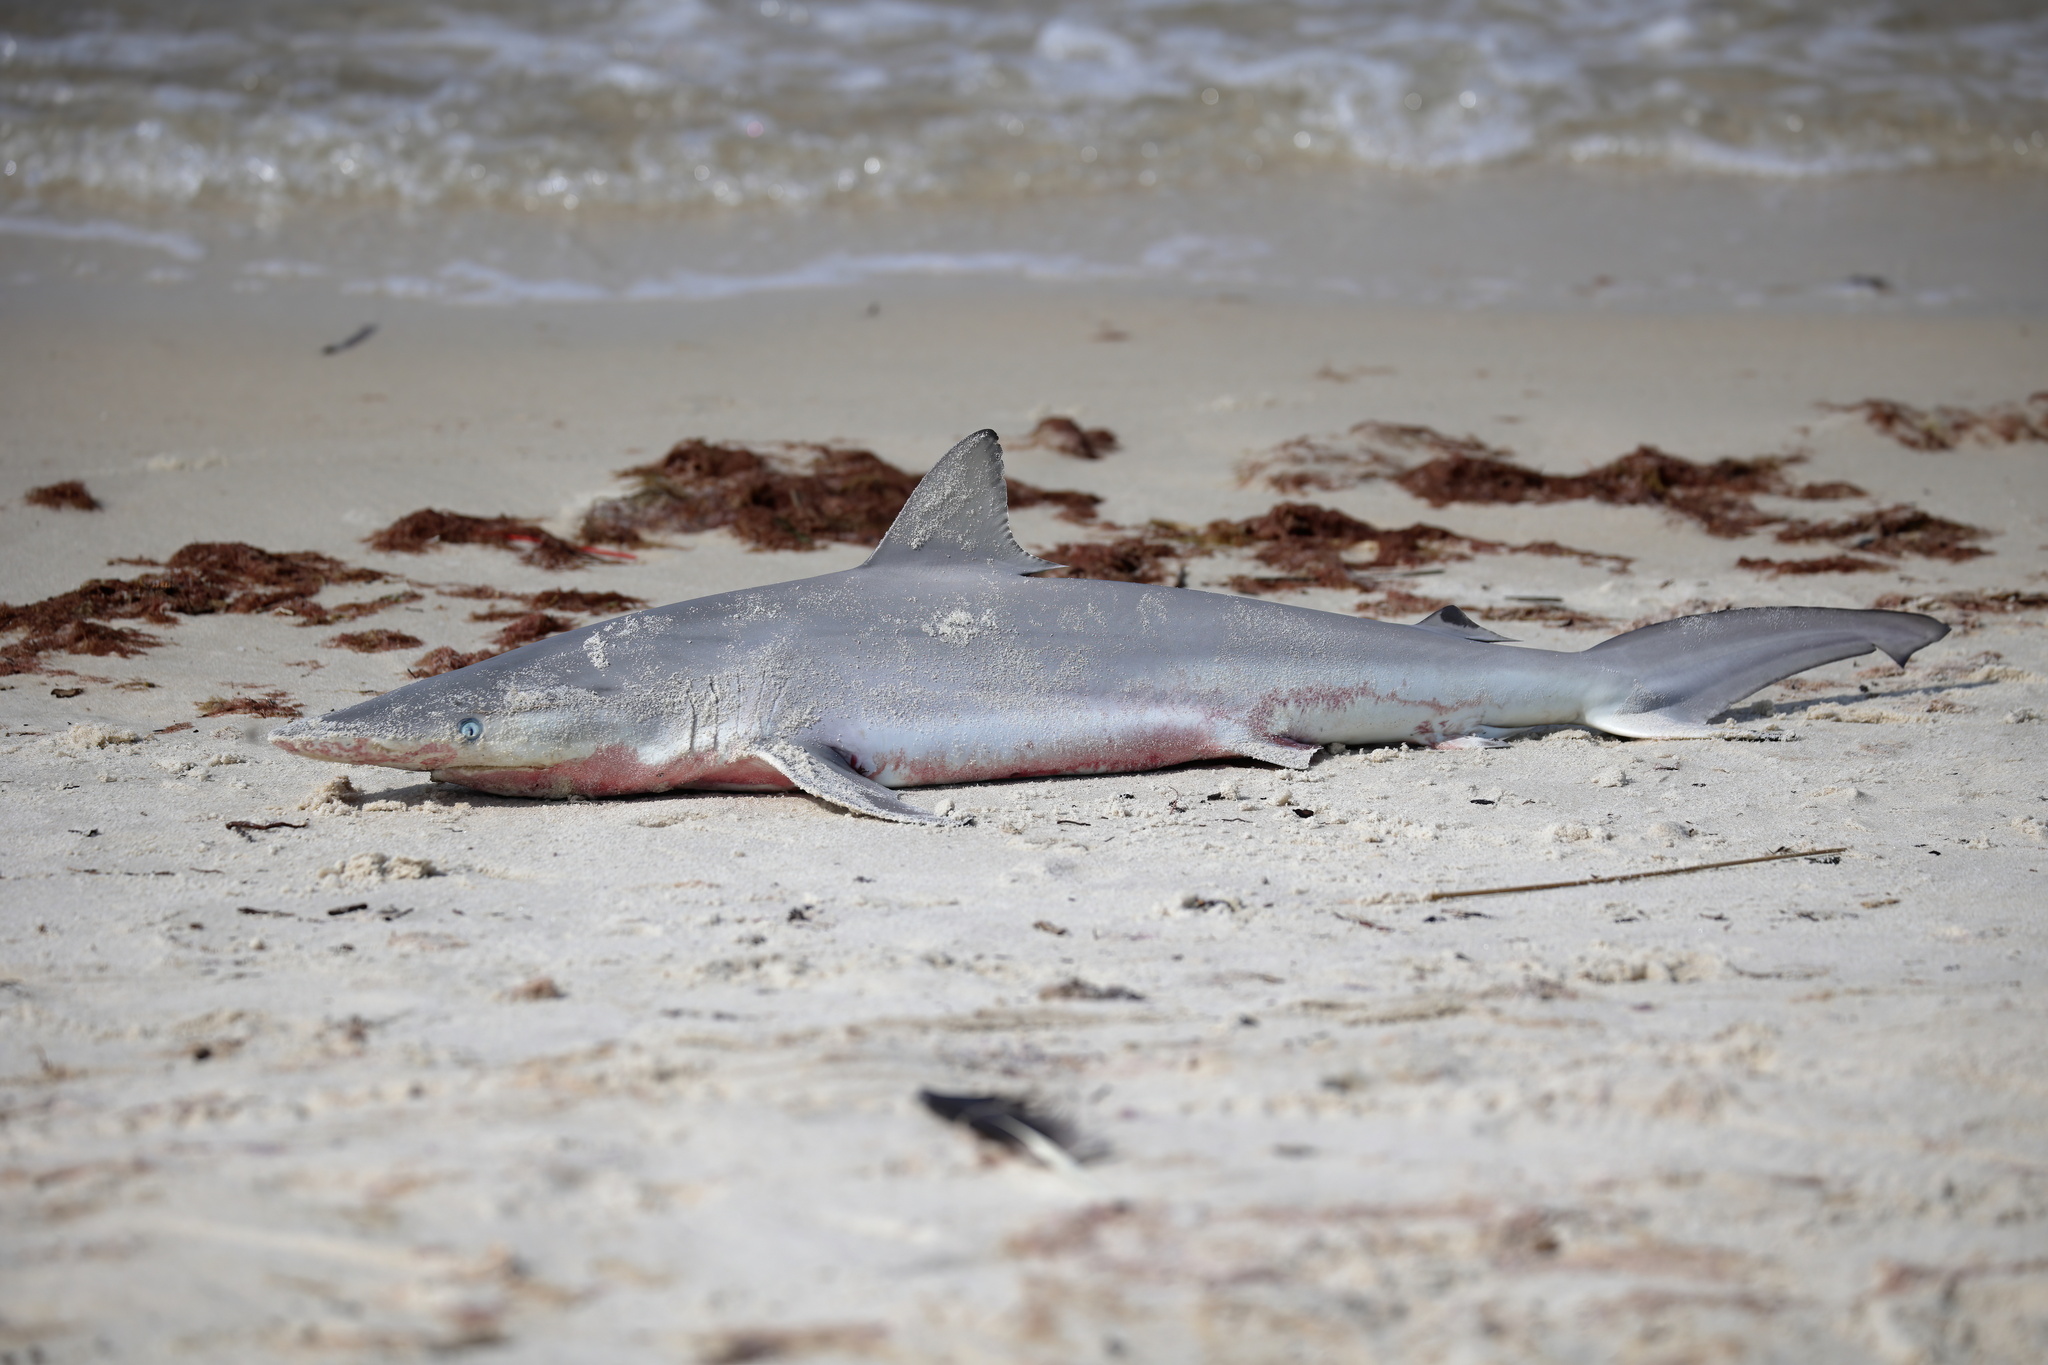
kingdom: Animalia
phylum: Chordata
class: Elasmobranchii
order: Carcharhiniformes
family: Carcharhinidae
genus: Carcharhinus
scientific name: Carcharhinus brevipinna
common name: Spinner shark
